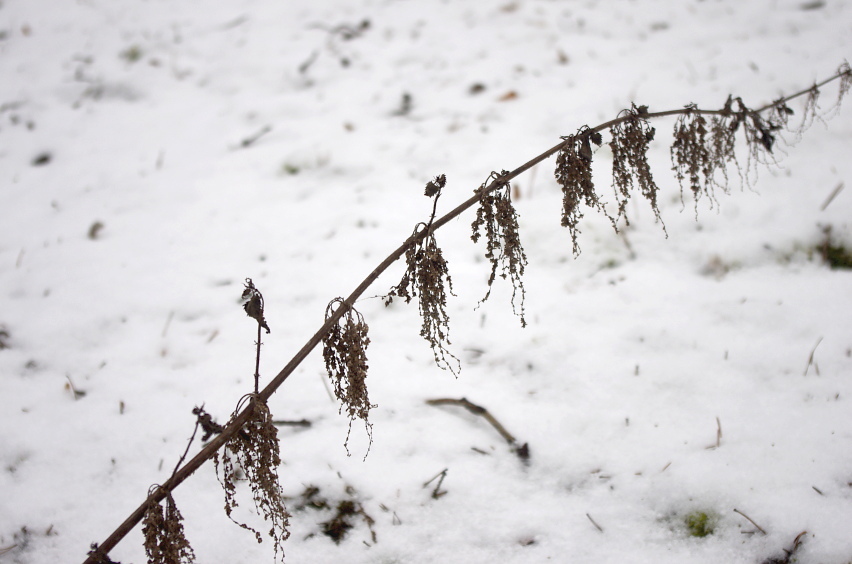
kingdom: Plantae
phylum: Tracheophyta
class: Magnoliopsida
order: Rosales
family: Urticaceae
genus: Urtica
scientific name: Urtica dioica
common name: Common nettle
